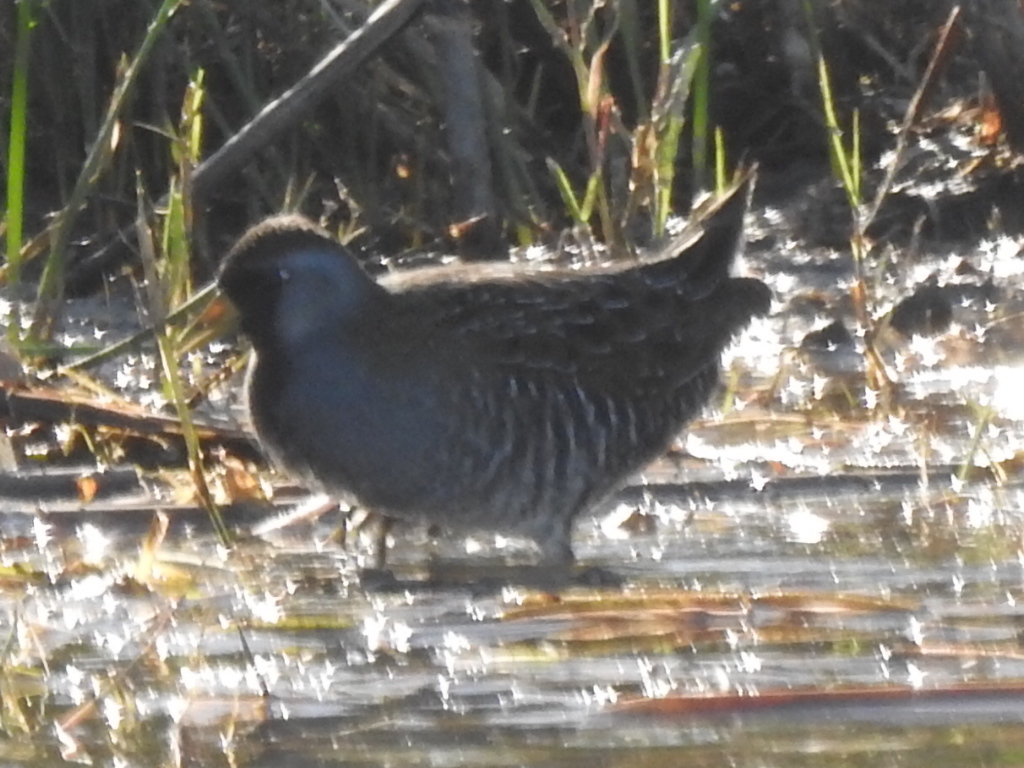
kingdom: Animalia
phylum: Chordata
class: Aves
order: Gruiformes
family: Rallidae
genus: Porzana
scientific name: Porzana carolina
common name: Sora
